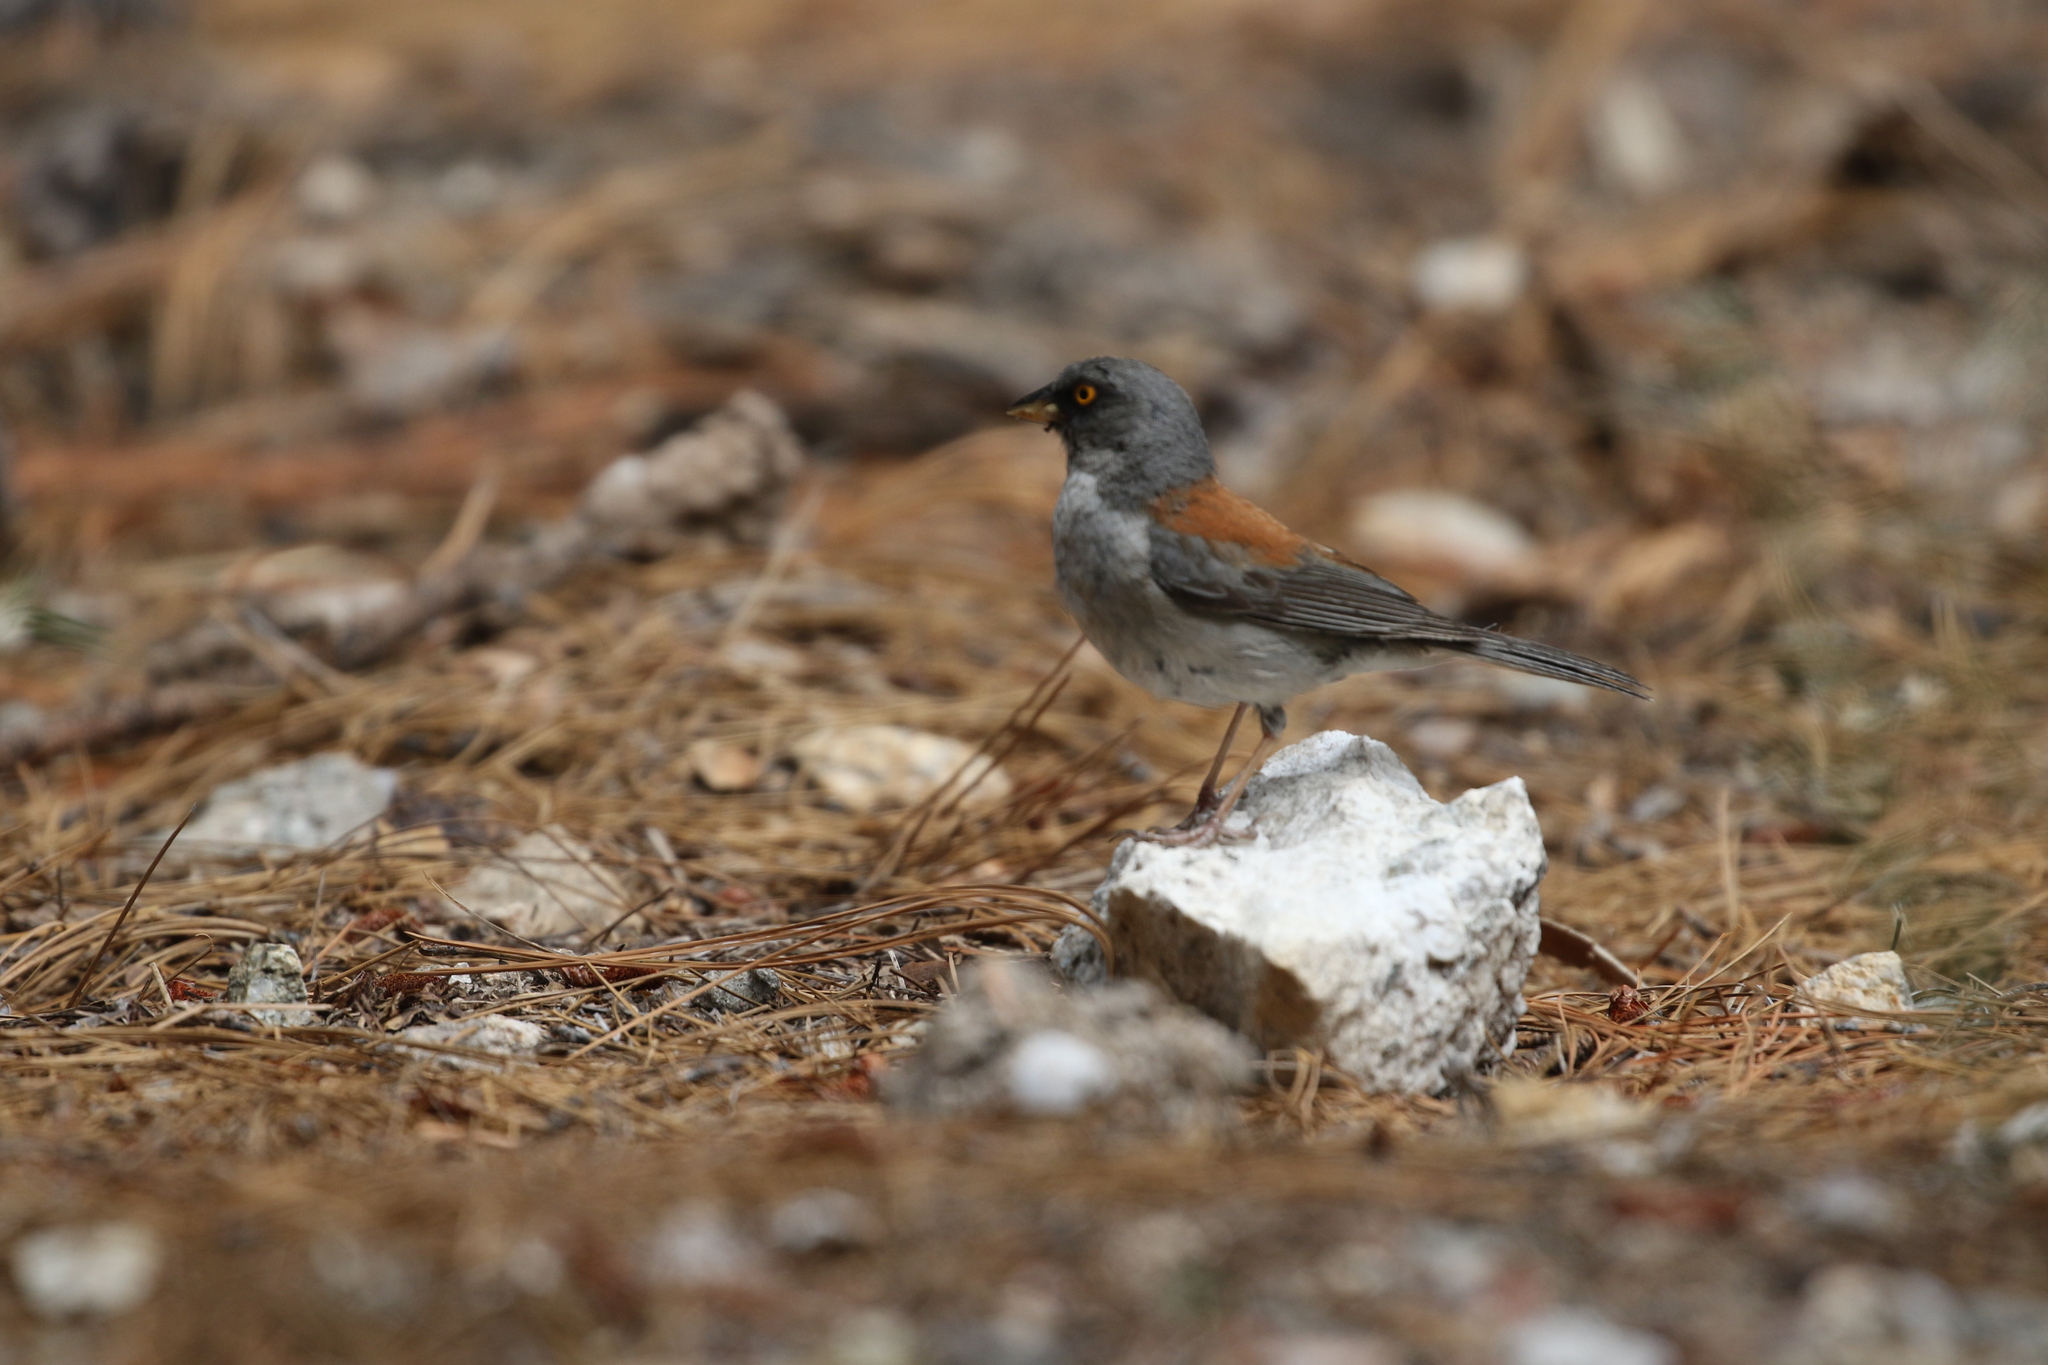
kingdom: Animalia
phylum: Chordata
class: Aves
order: Passeriformes
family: Passerellidae
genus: Junco
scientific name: Junco phaeonotus
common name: Yellow-eyed junco
